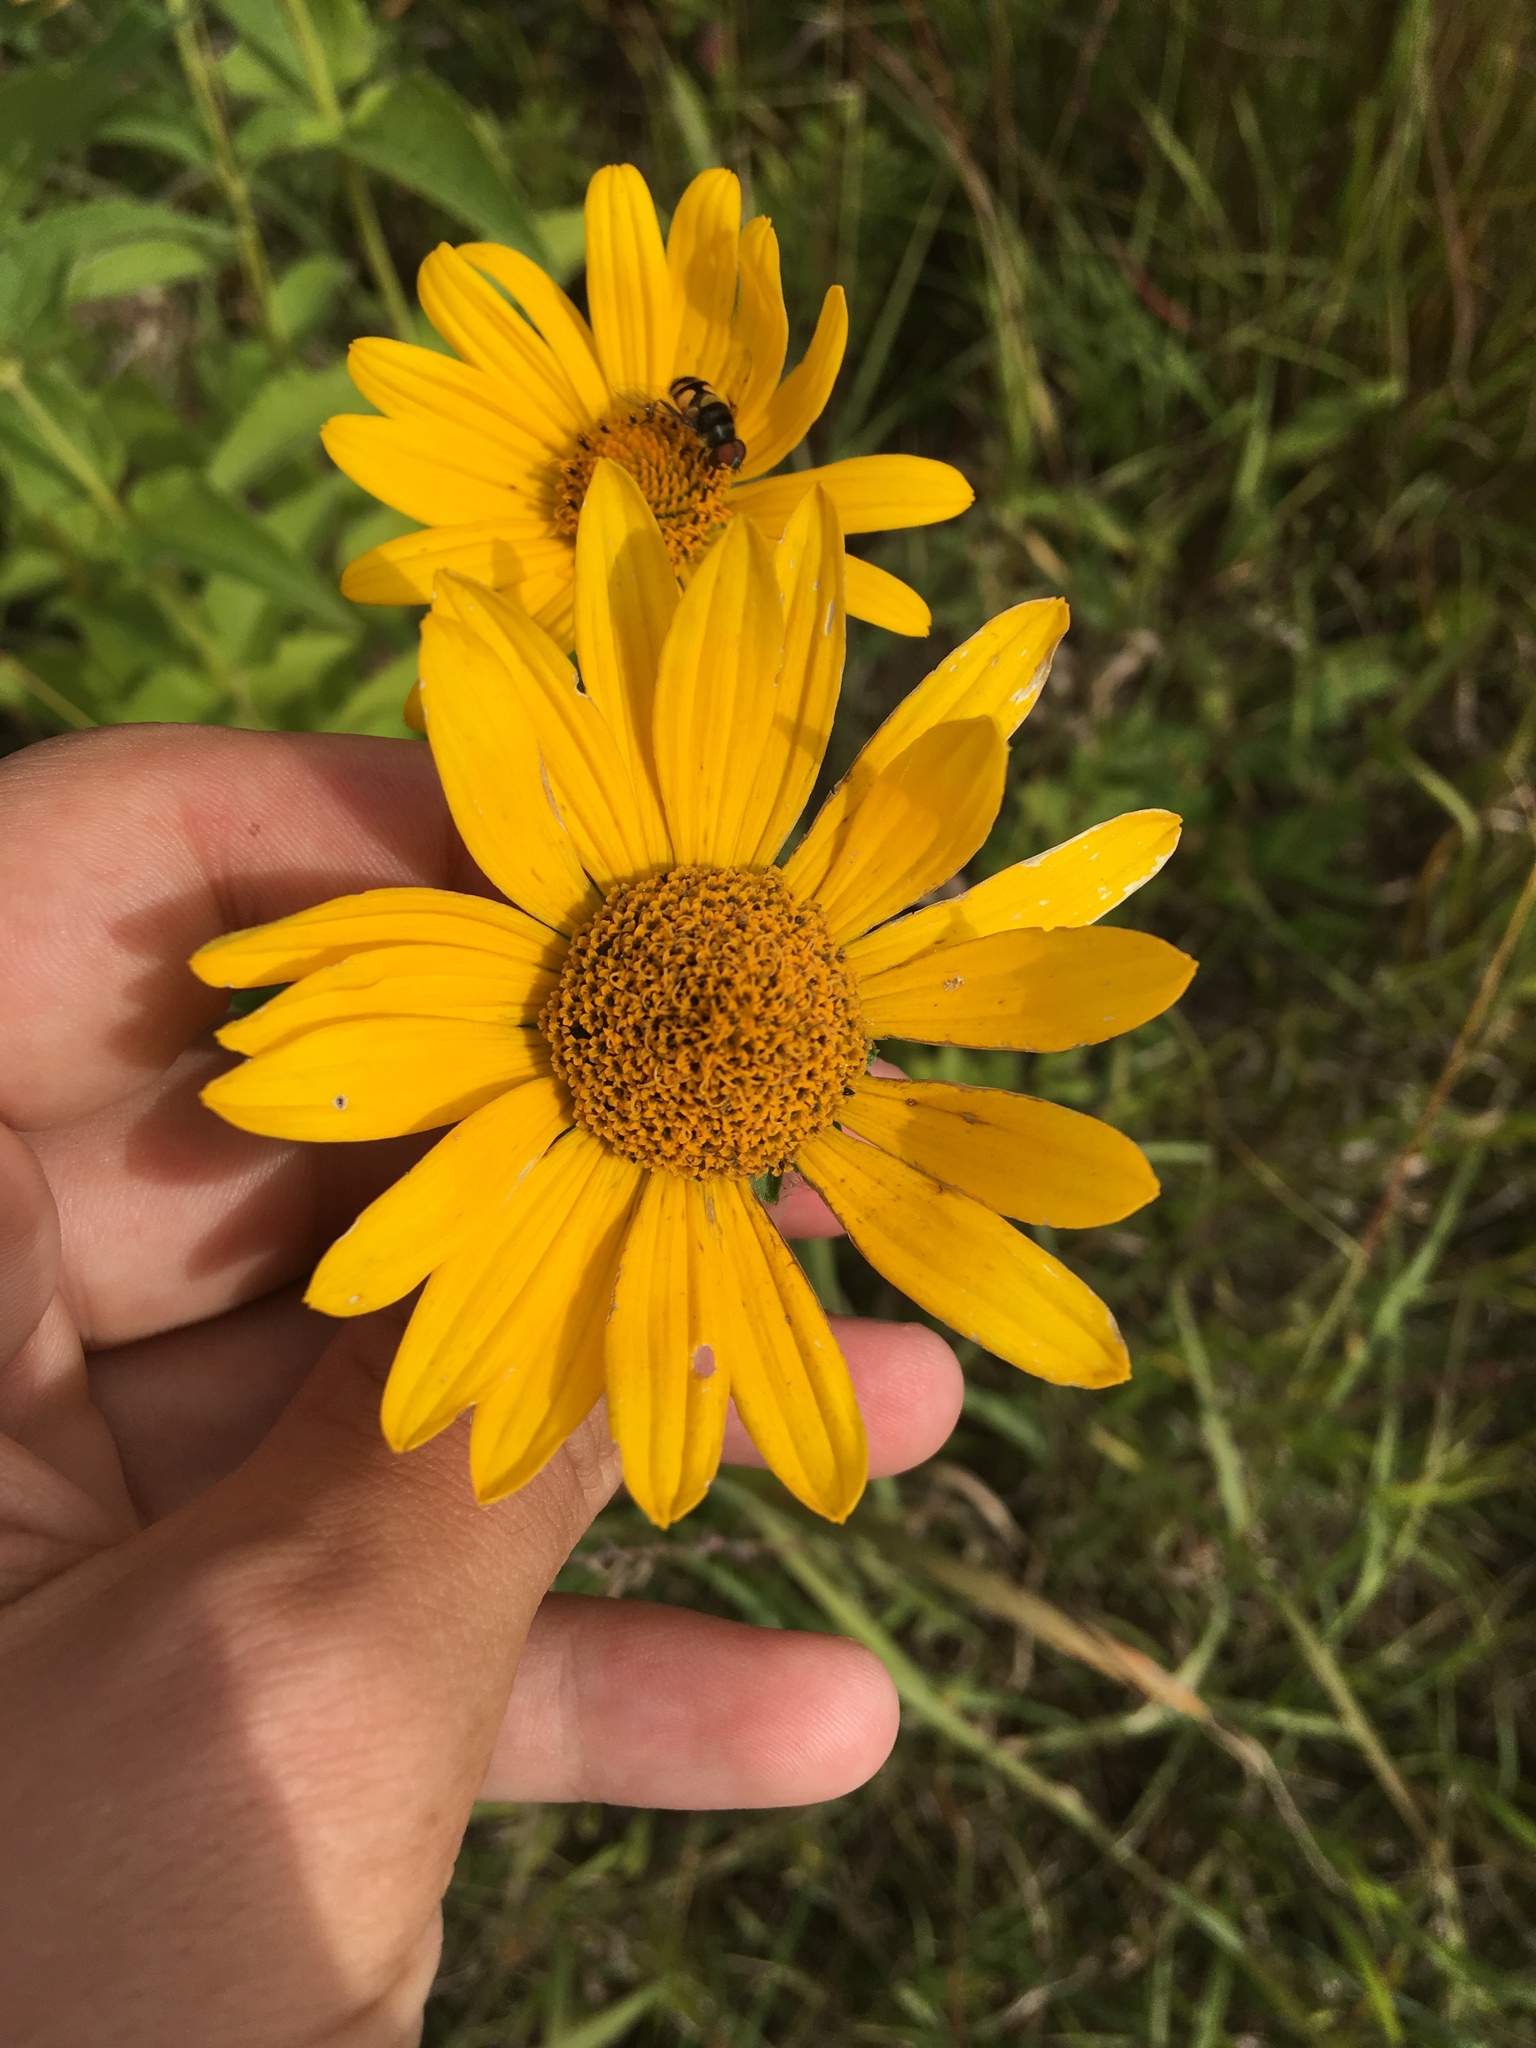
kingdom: Plantae
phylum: Tracheophyta
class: Magnoliopsida
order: Asterales
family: Asteraceae
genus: Heliopsis
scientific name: Heliopsis helianthoides
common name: False sunflower
